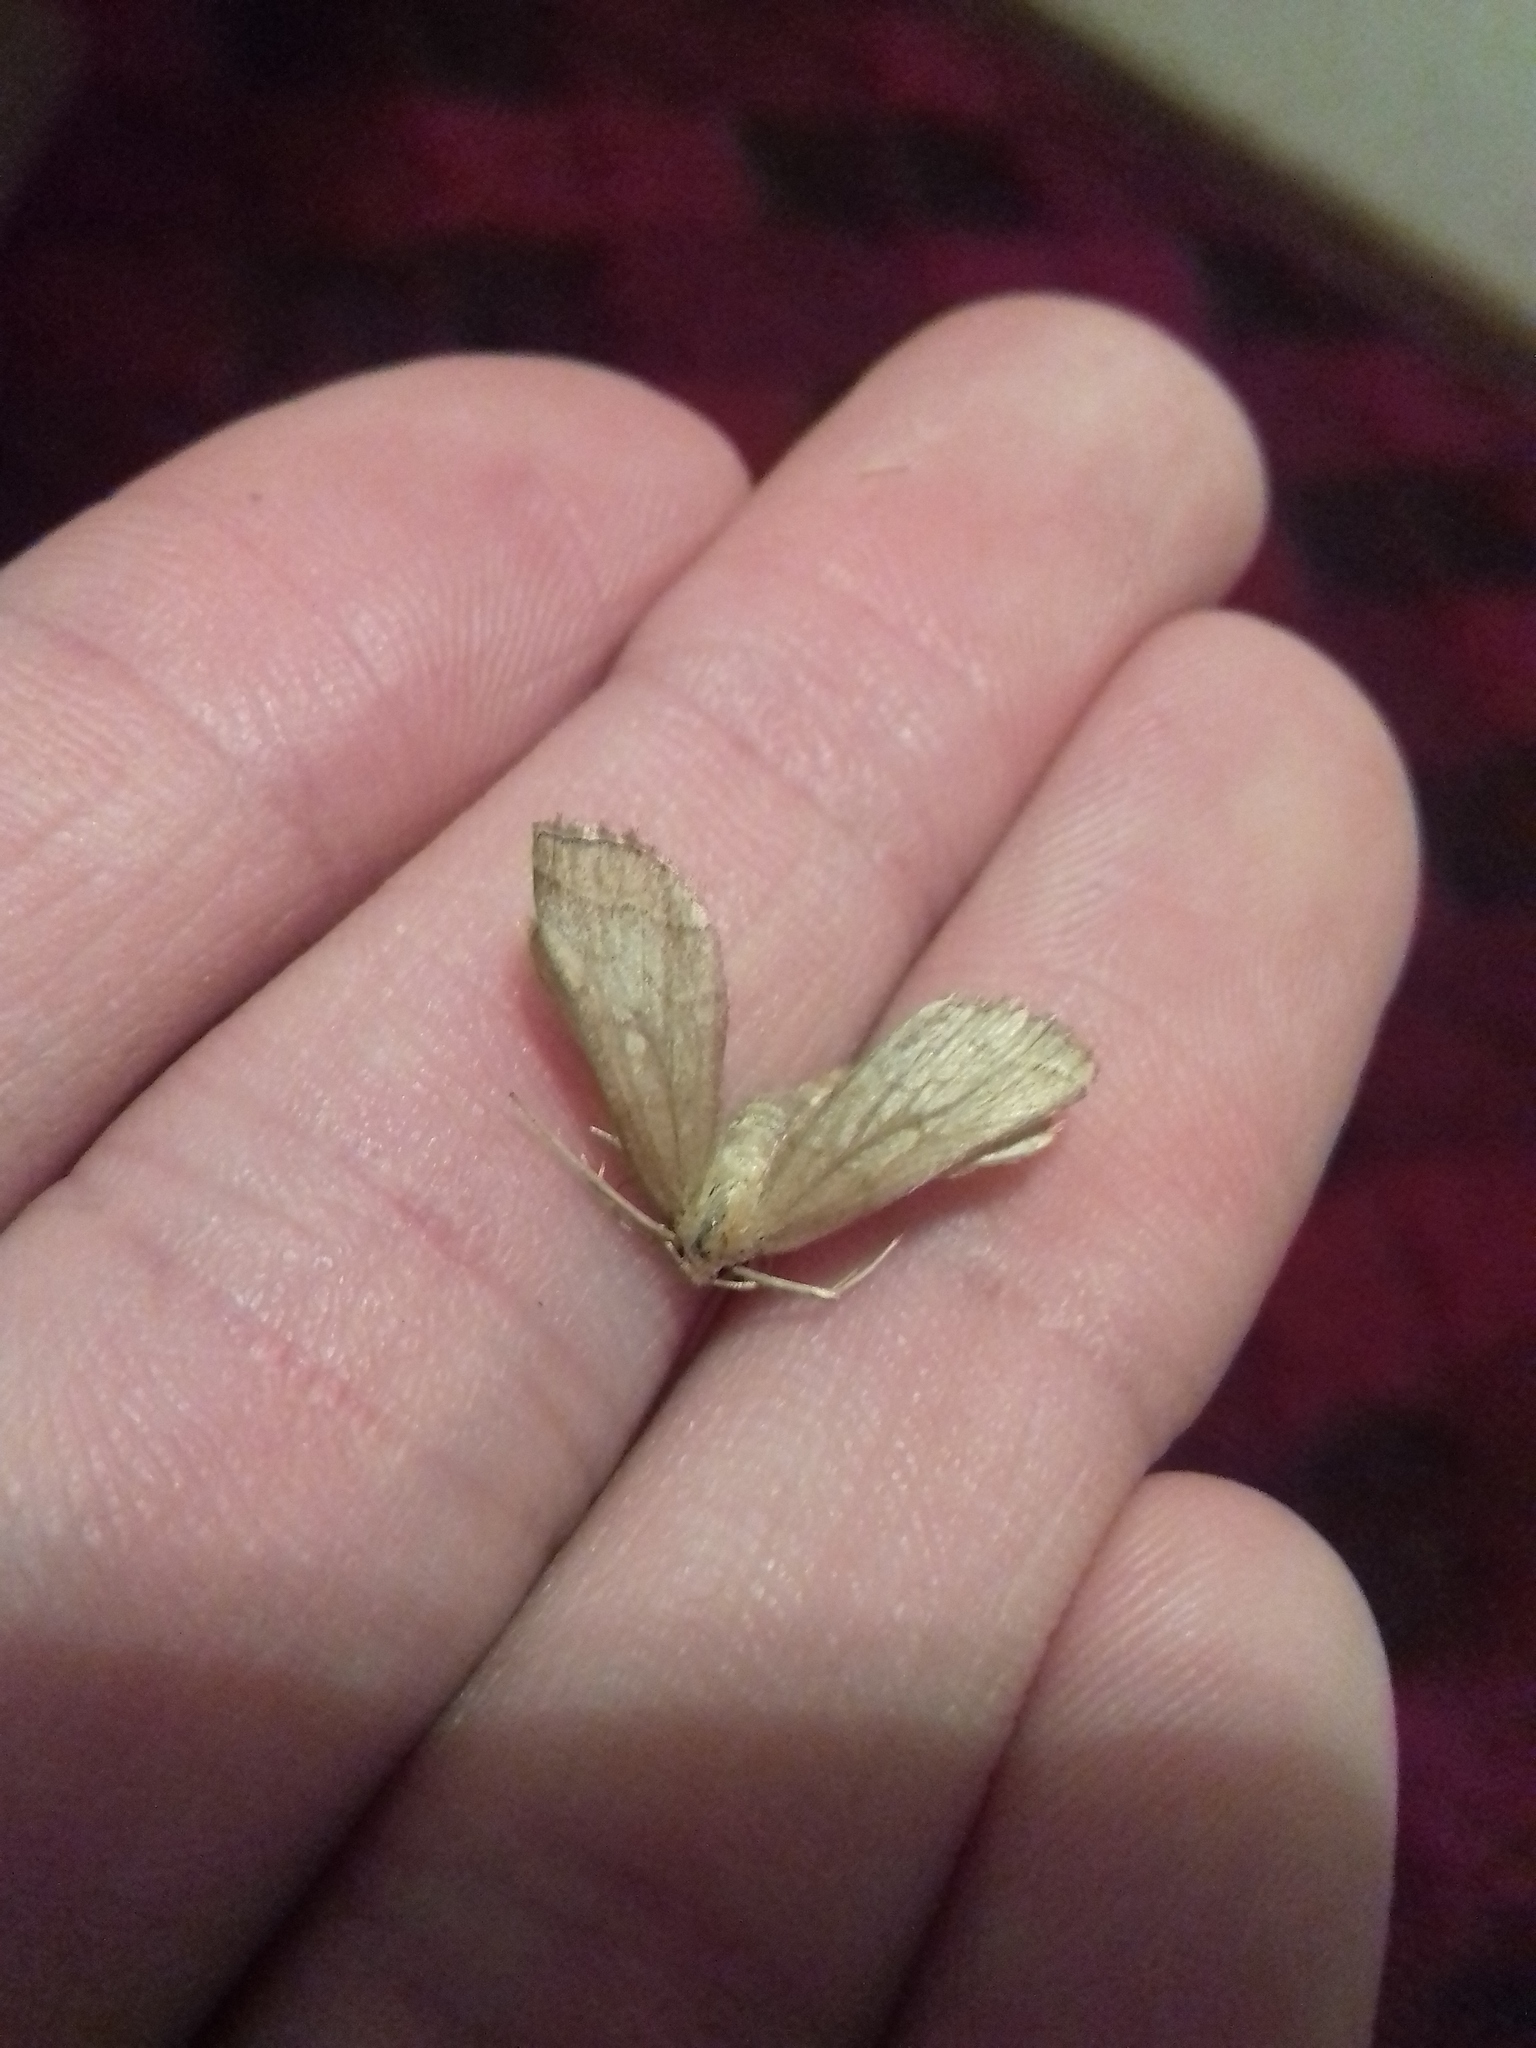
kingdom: Animalia
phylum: Arthropoda
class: Insecta
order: Lepidoptera
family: Erebidae
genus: Pechipogo
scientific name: Pechipogo strigilata
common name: Common fan-foot
